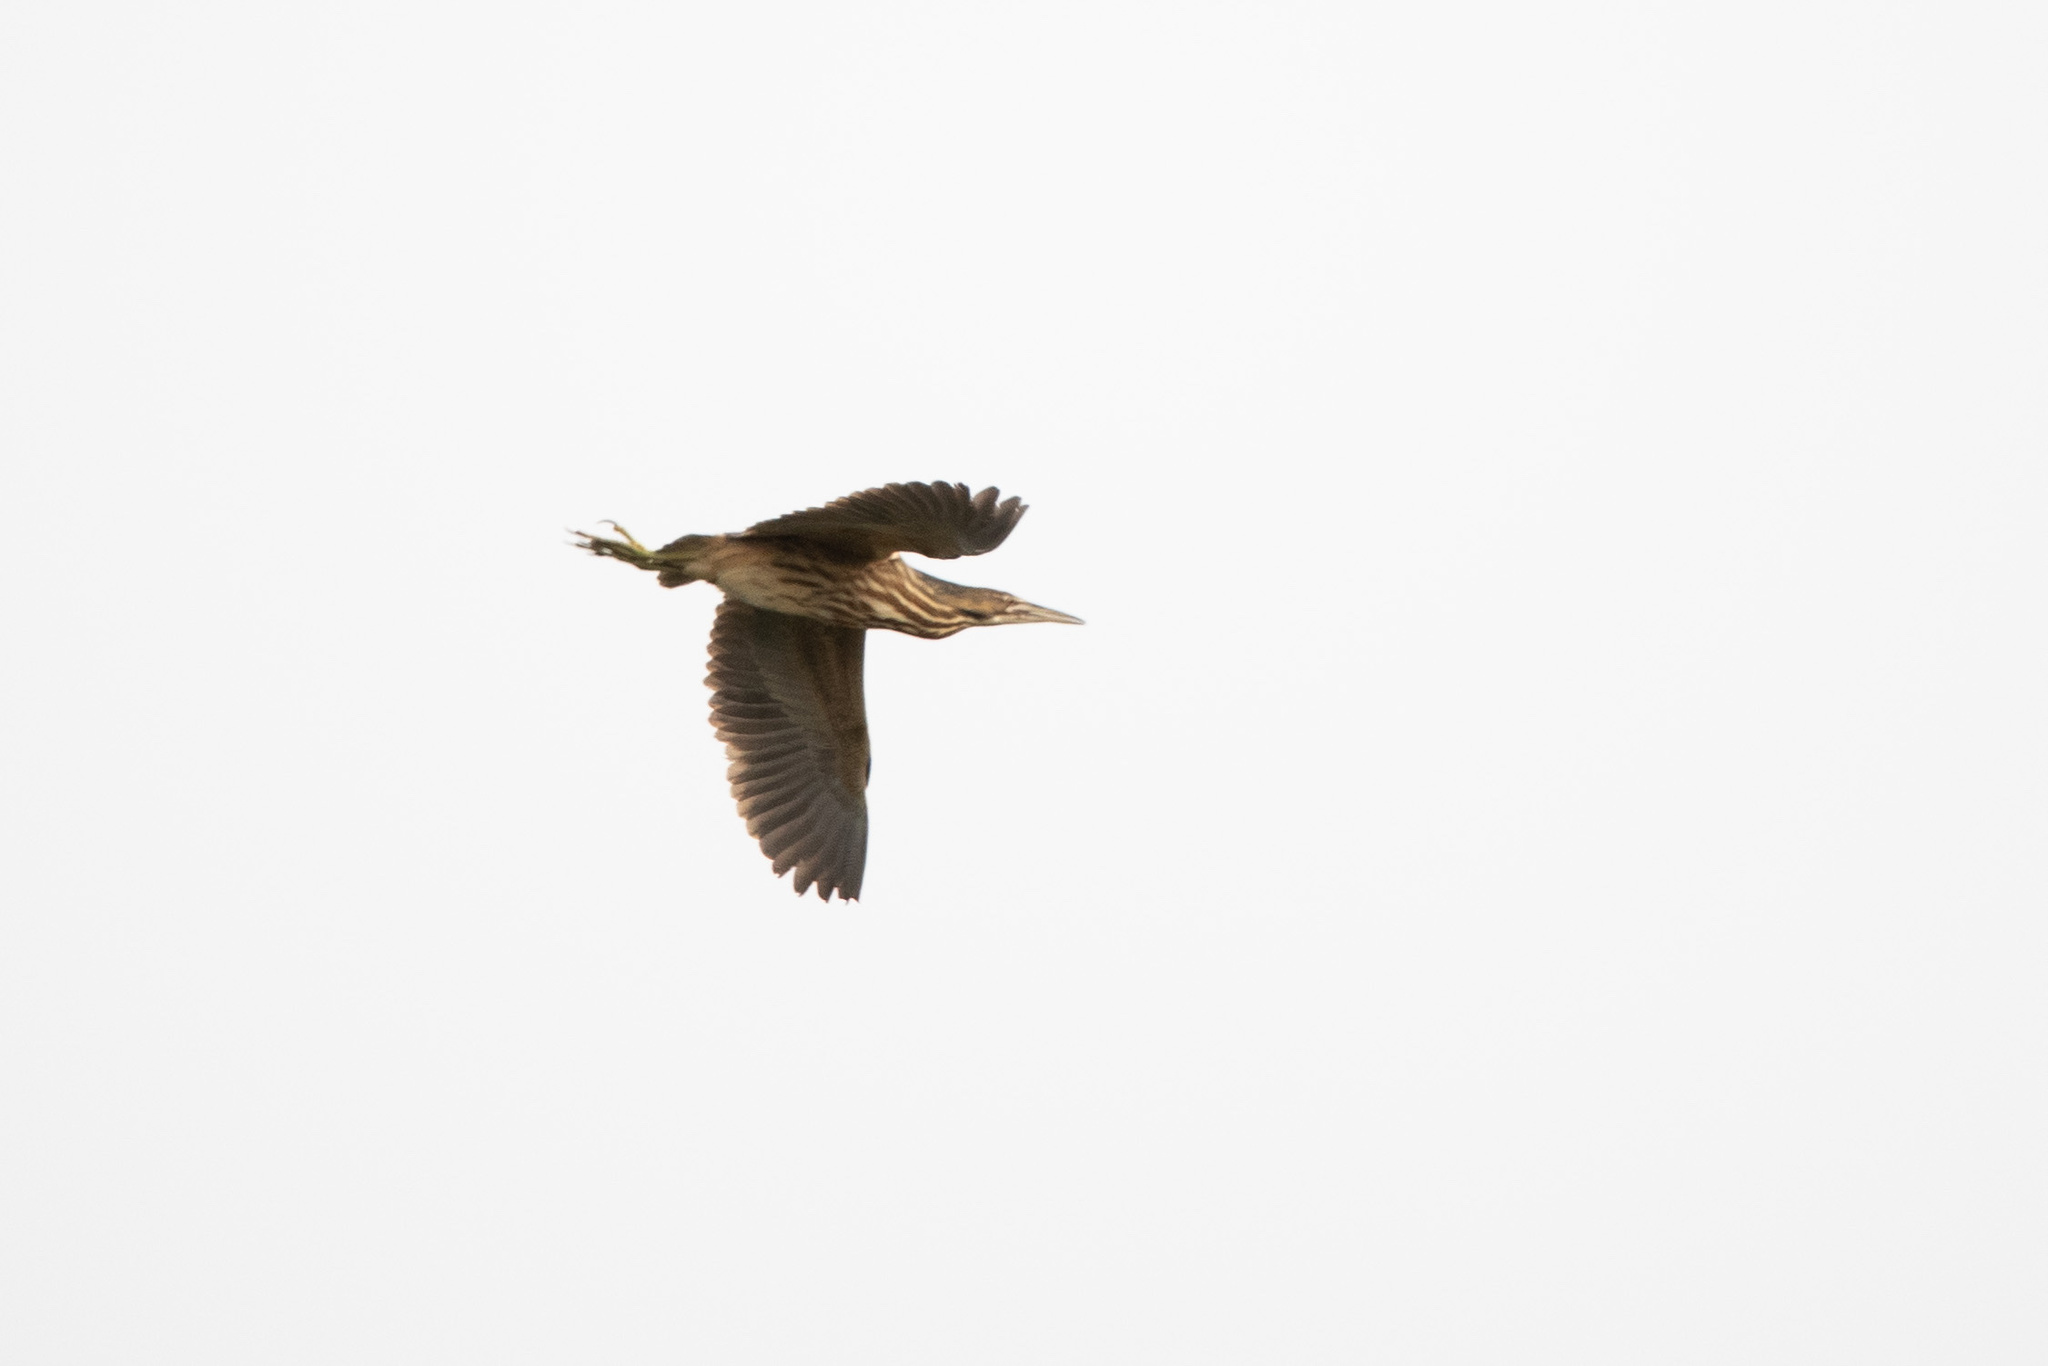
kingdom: Animalia
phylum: Chordata
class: Aves
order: Pelecaniformes
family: Ardeidae
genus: Botaurus
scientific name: Botaurus lentiginosus
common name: American bittern
